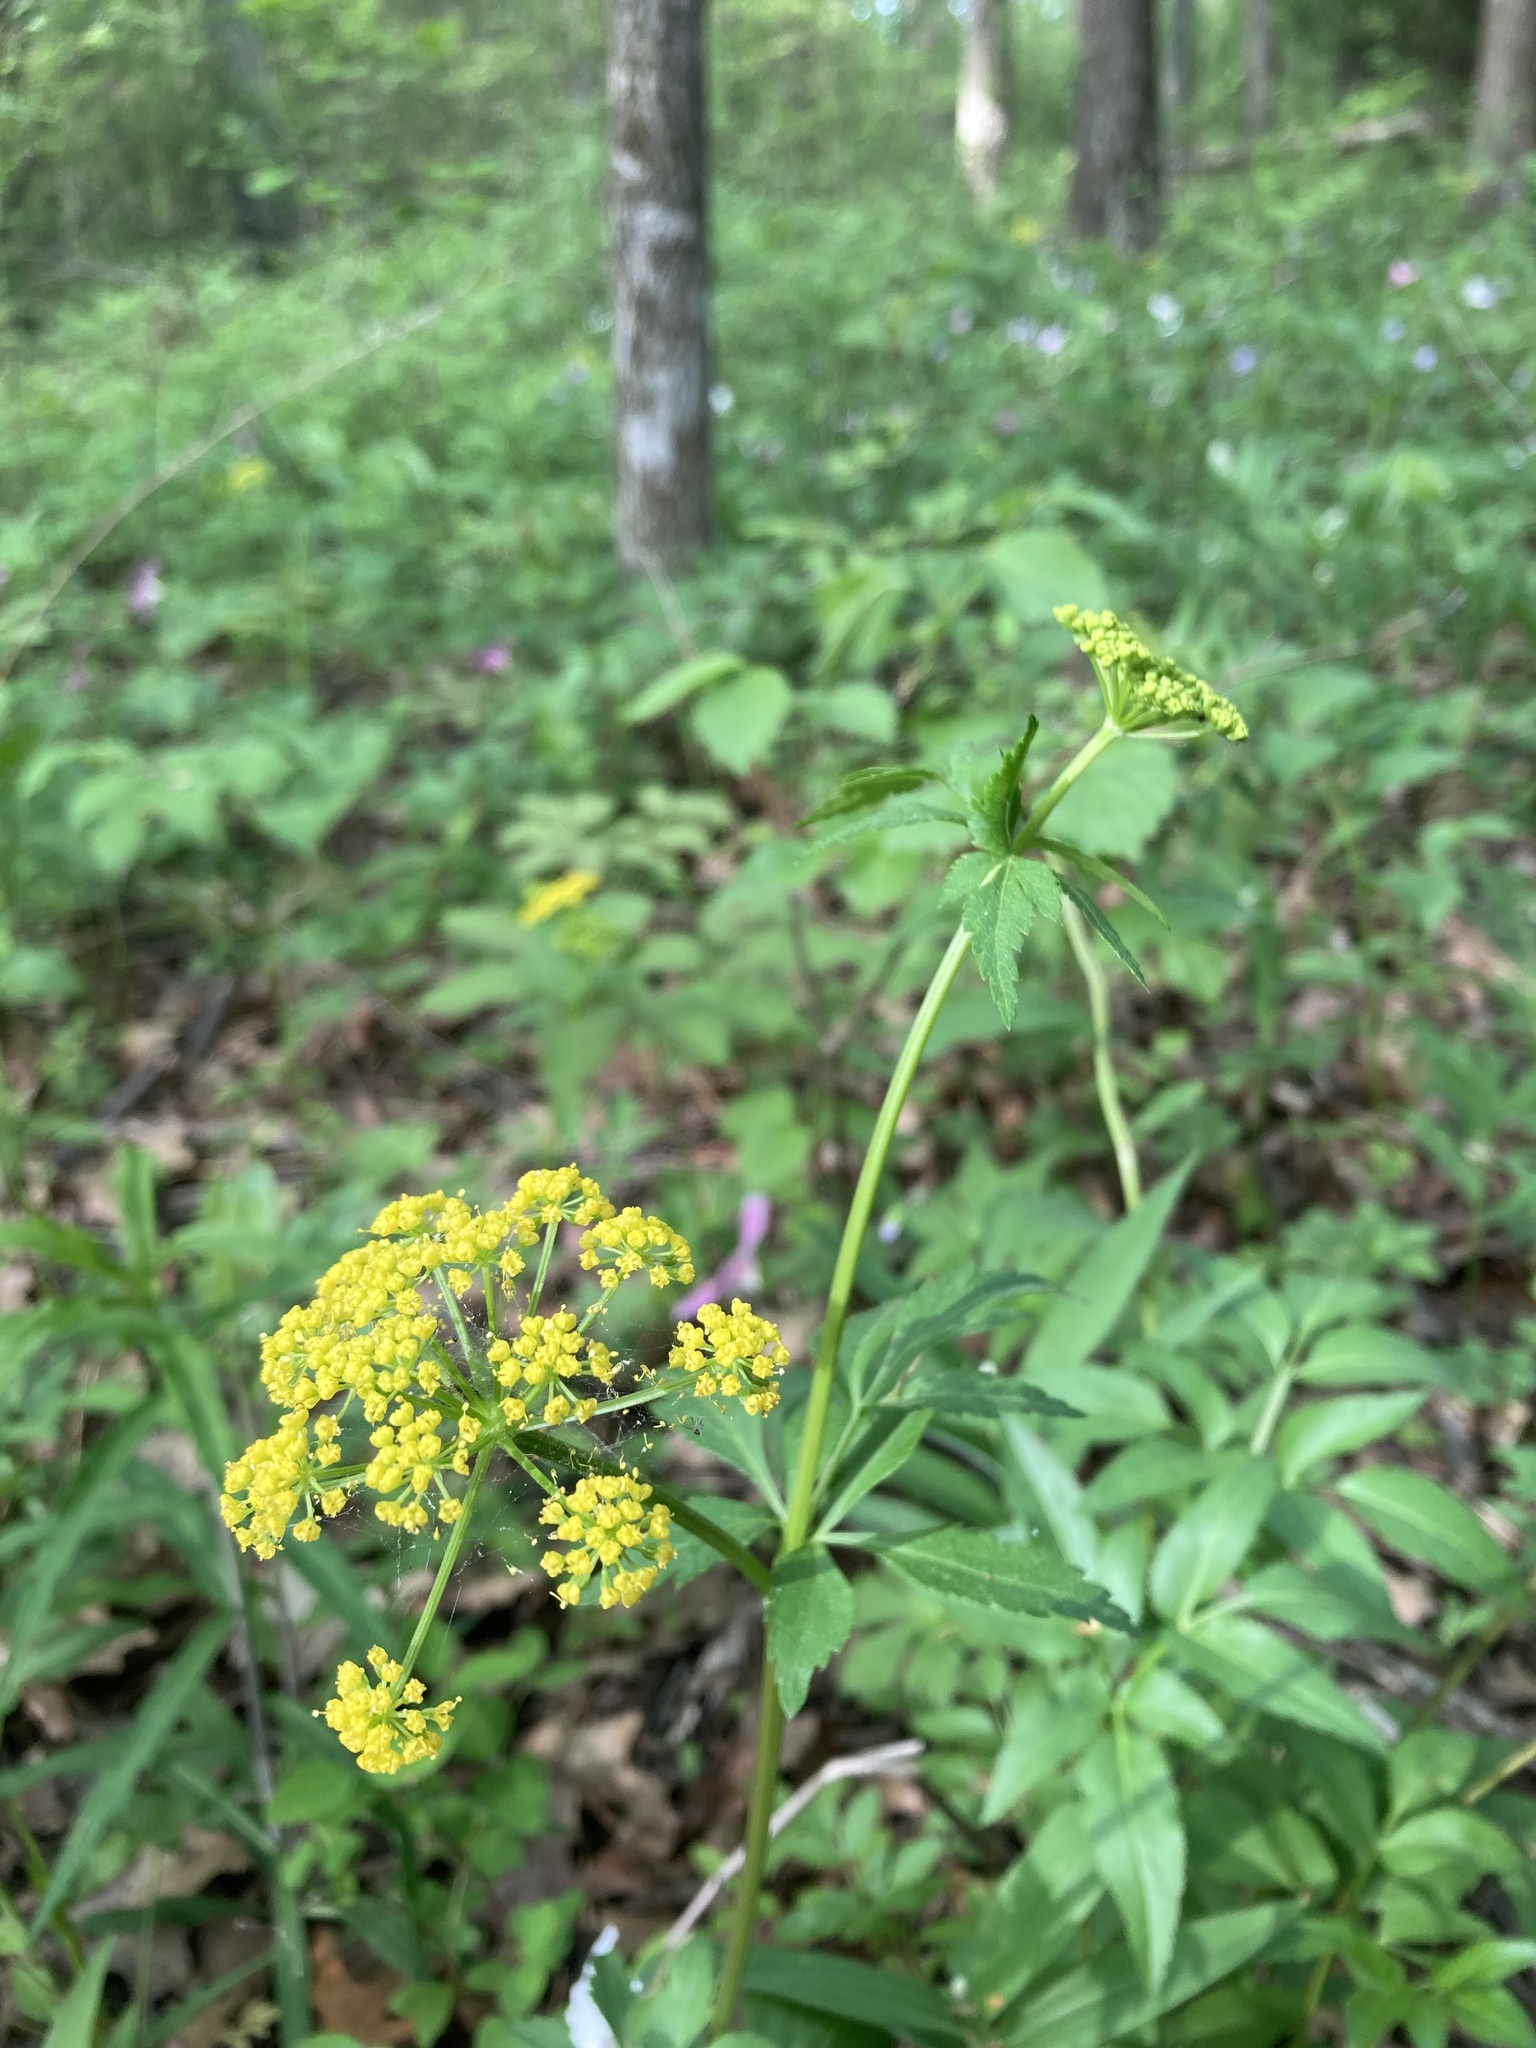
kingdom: Plantae
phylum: Tracheophyta
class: Magnoliopsida
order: Apiales
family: Apiaceae
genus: Zizia
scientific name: Zizia aurea
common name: Golden alexanders
